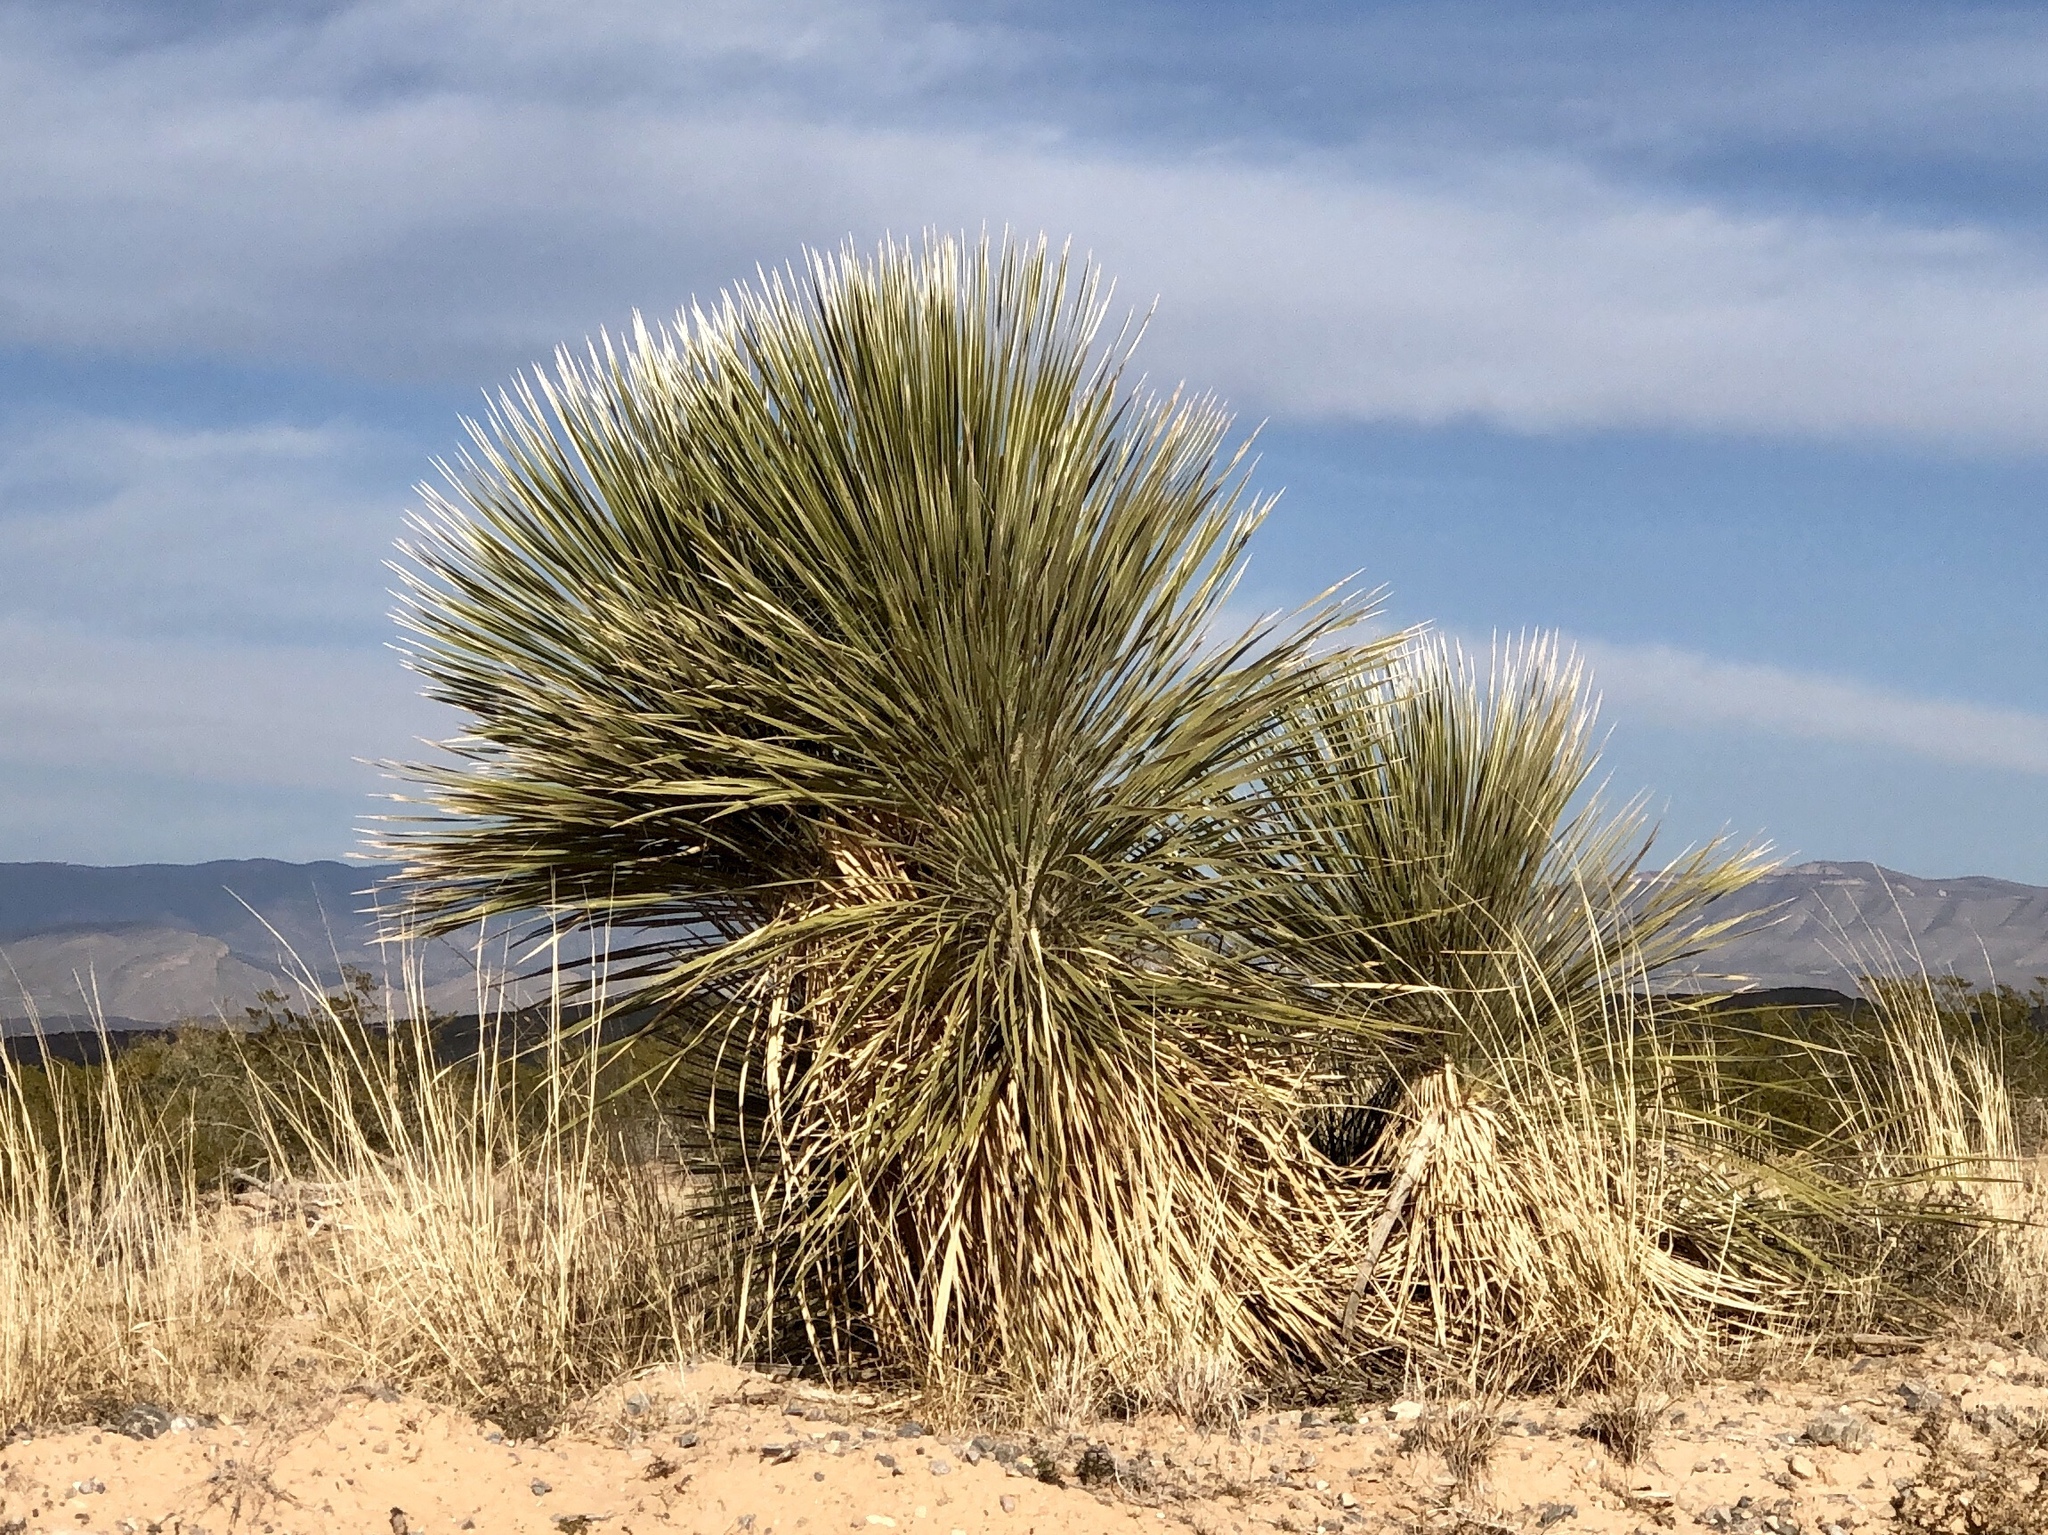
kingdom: Plantae
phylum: Tracheophyta
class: Liliopsida
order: Asparagales
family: Asparagaceae
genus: Yucca
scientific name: Yucca elata
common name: Palmella
